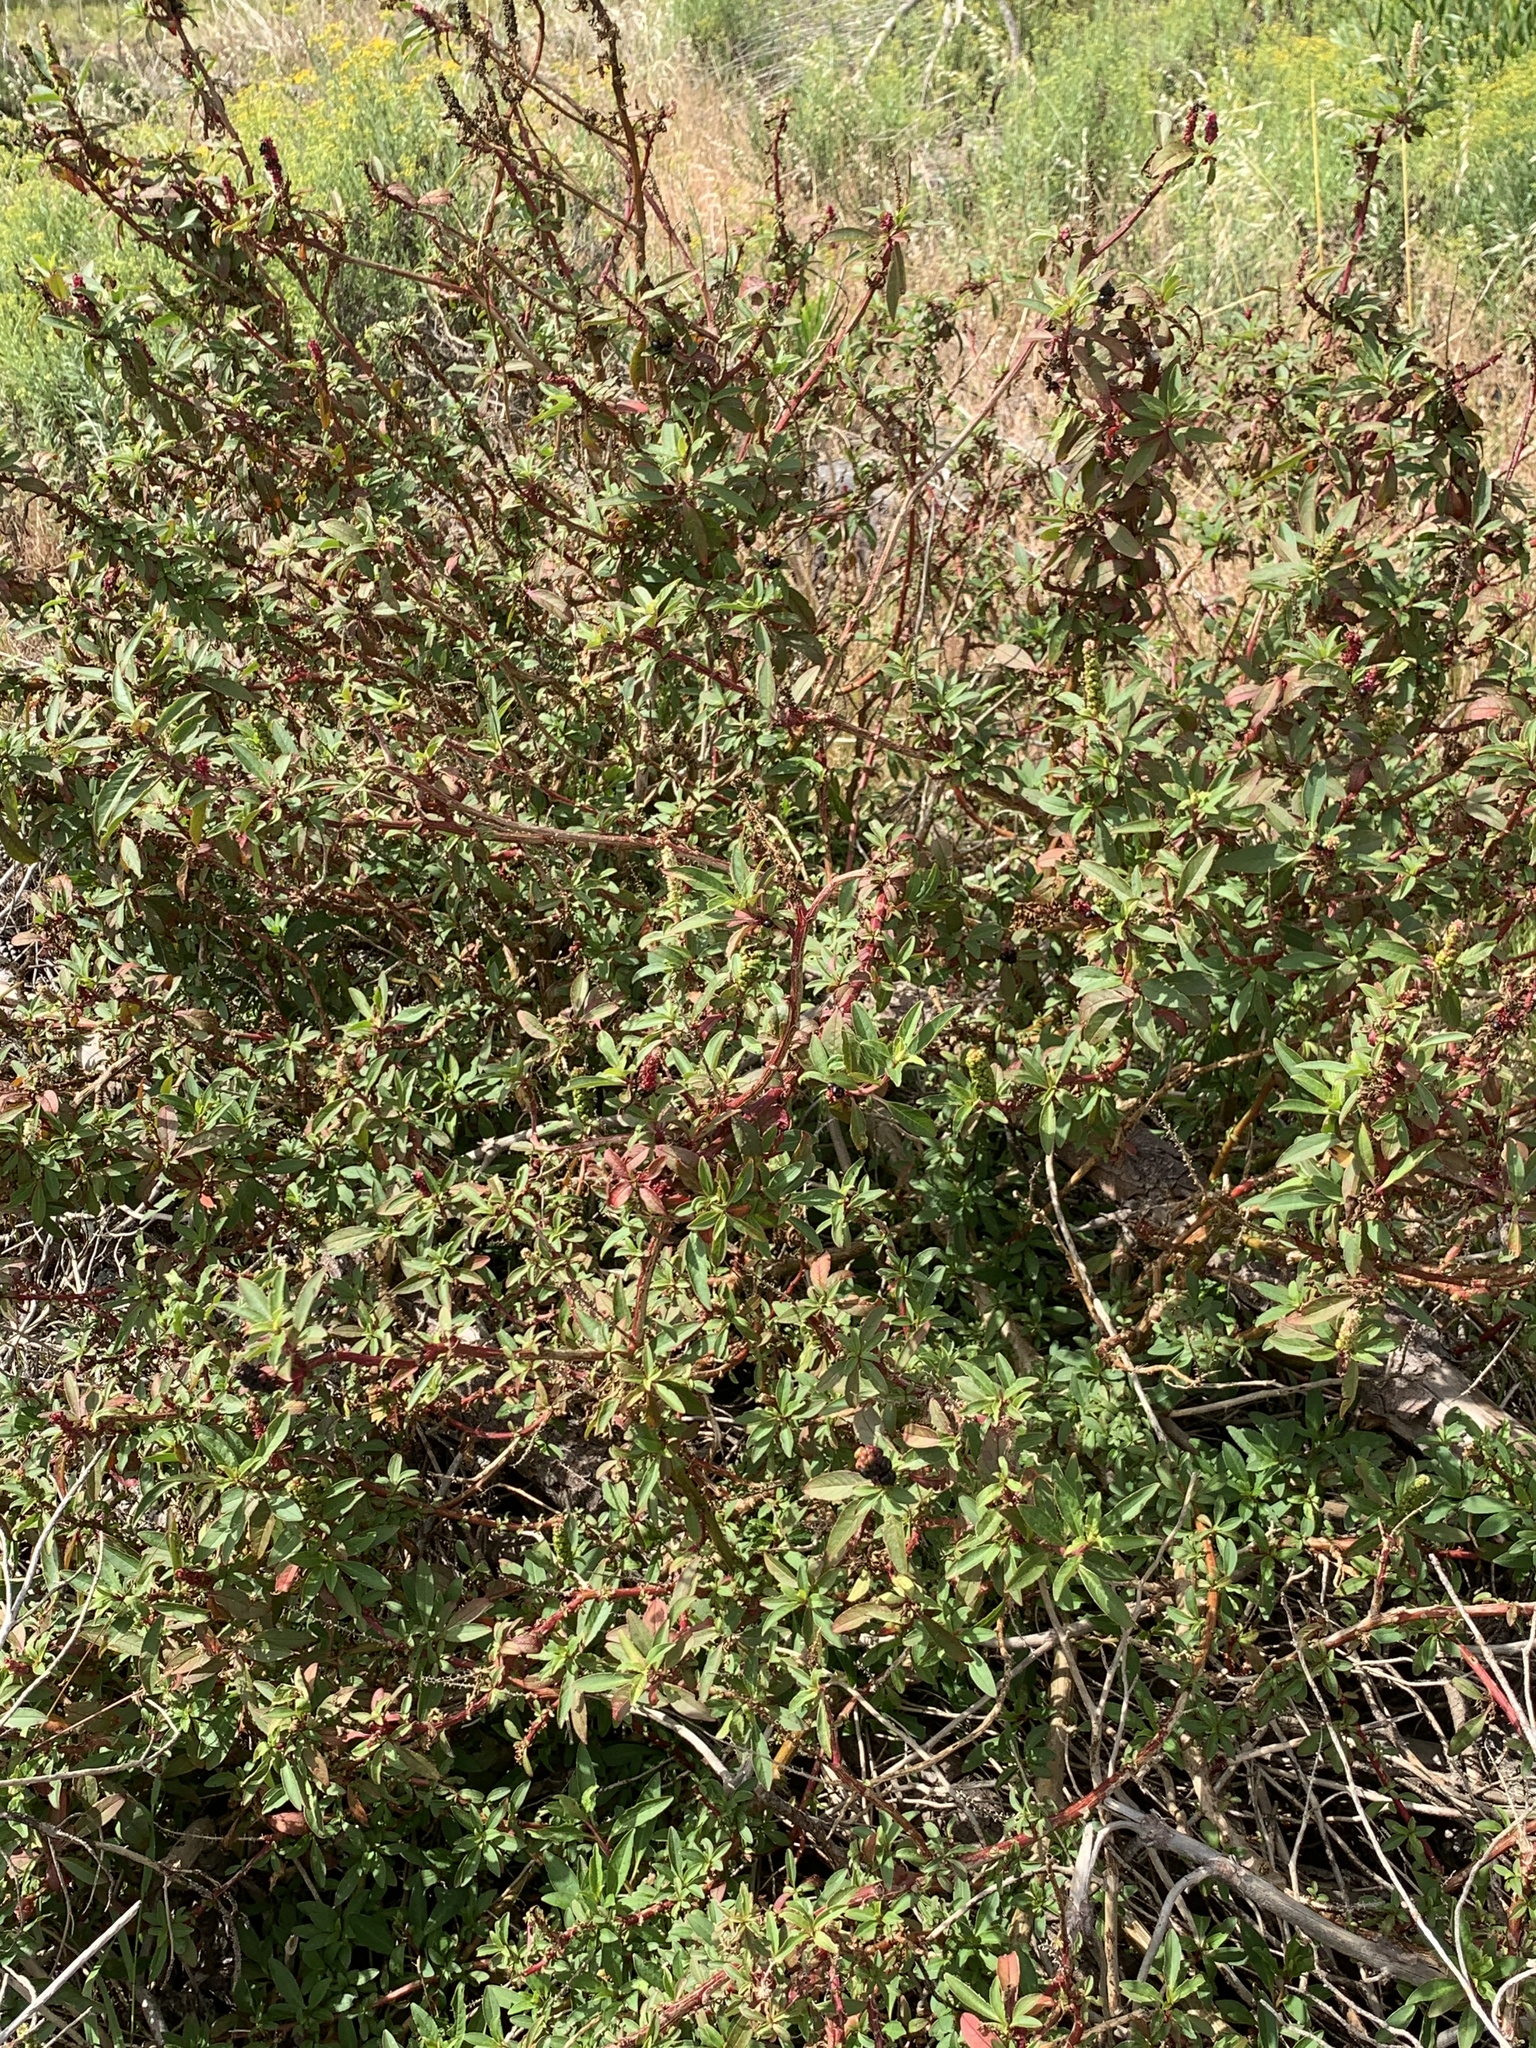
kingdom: Plantae
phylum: Tracheophyta
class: Magnoliopsida
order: Caryophyllales
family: Phytolaccaceae
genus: Phytolacca
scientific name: Phytolacca icosandra
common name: Button pokeweed
